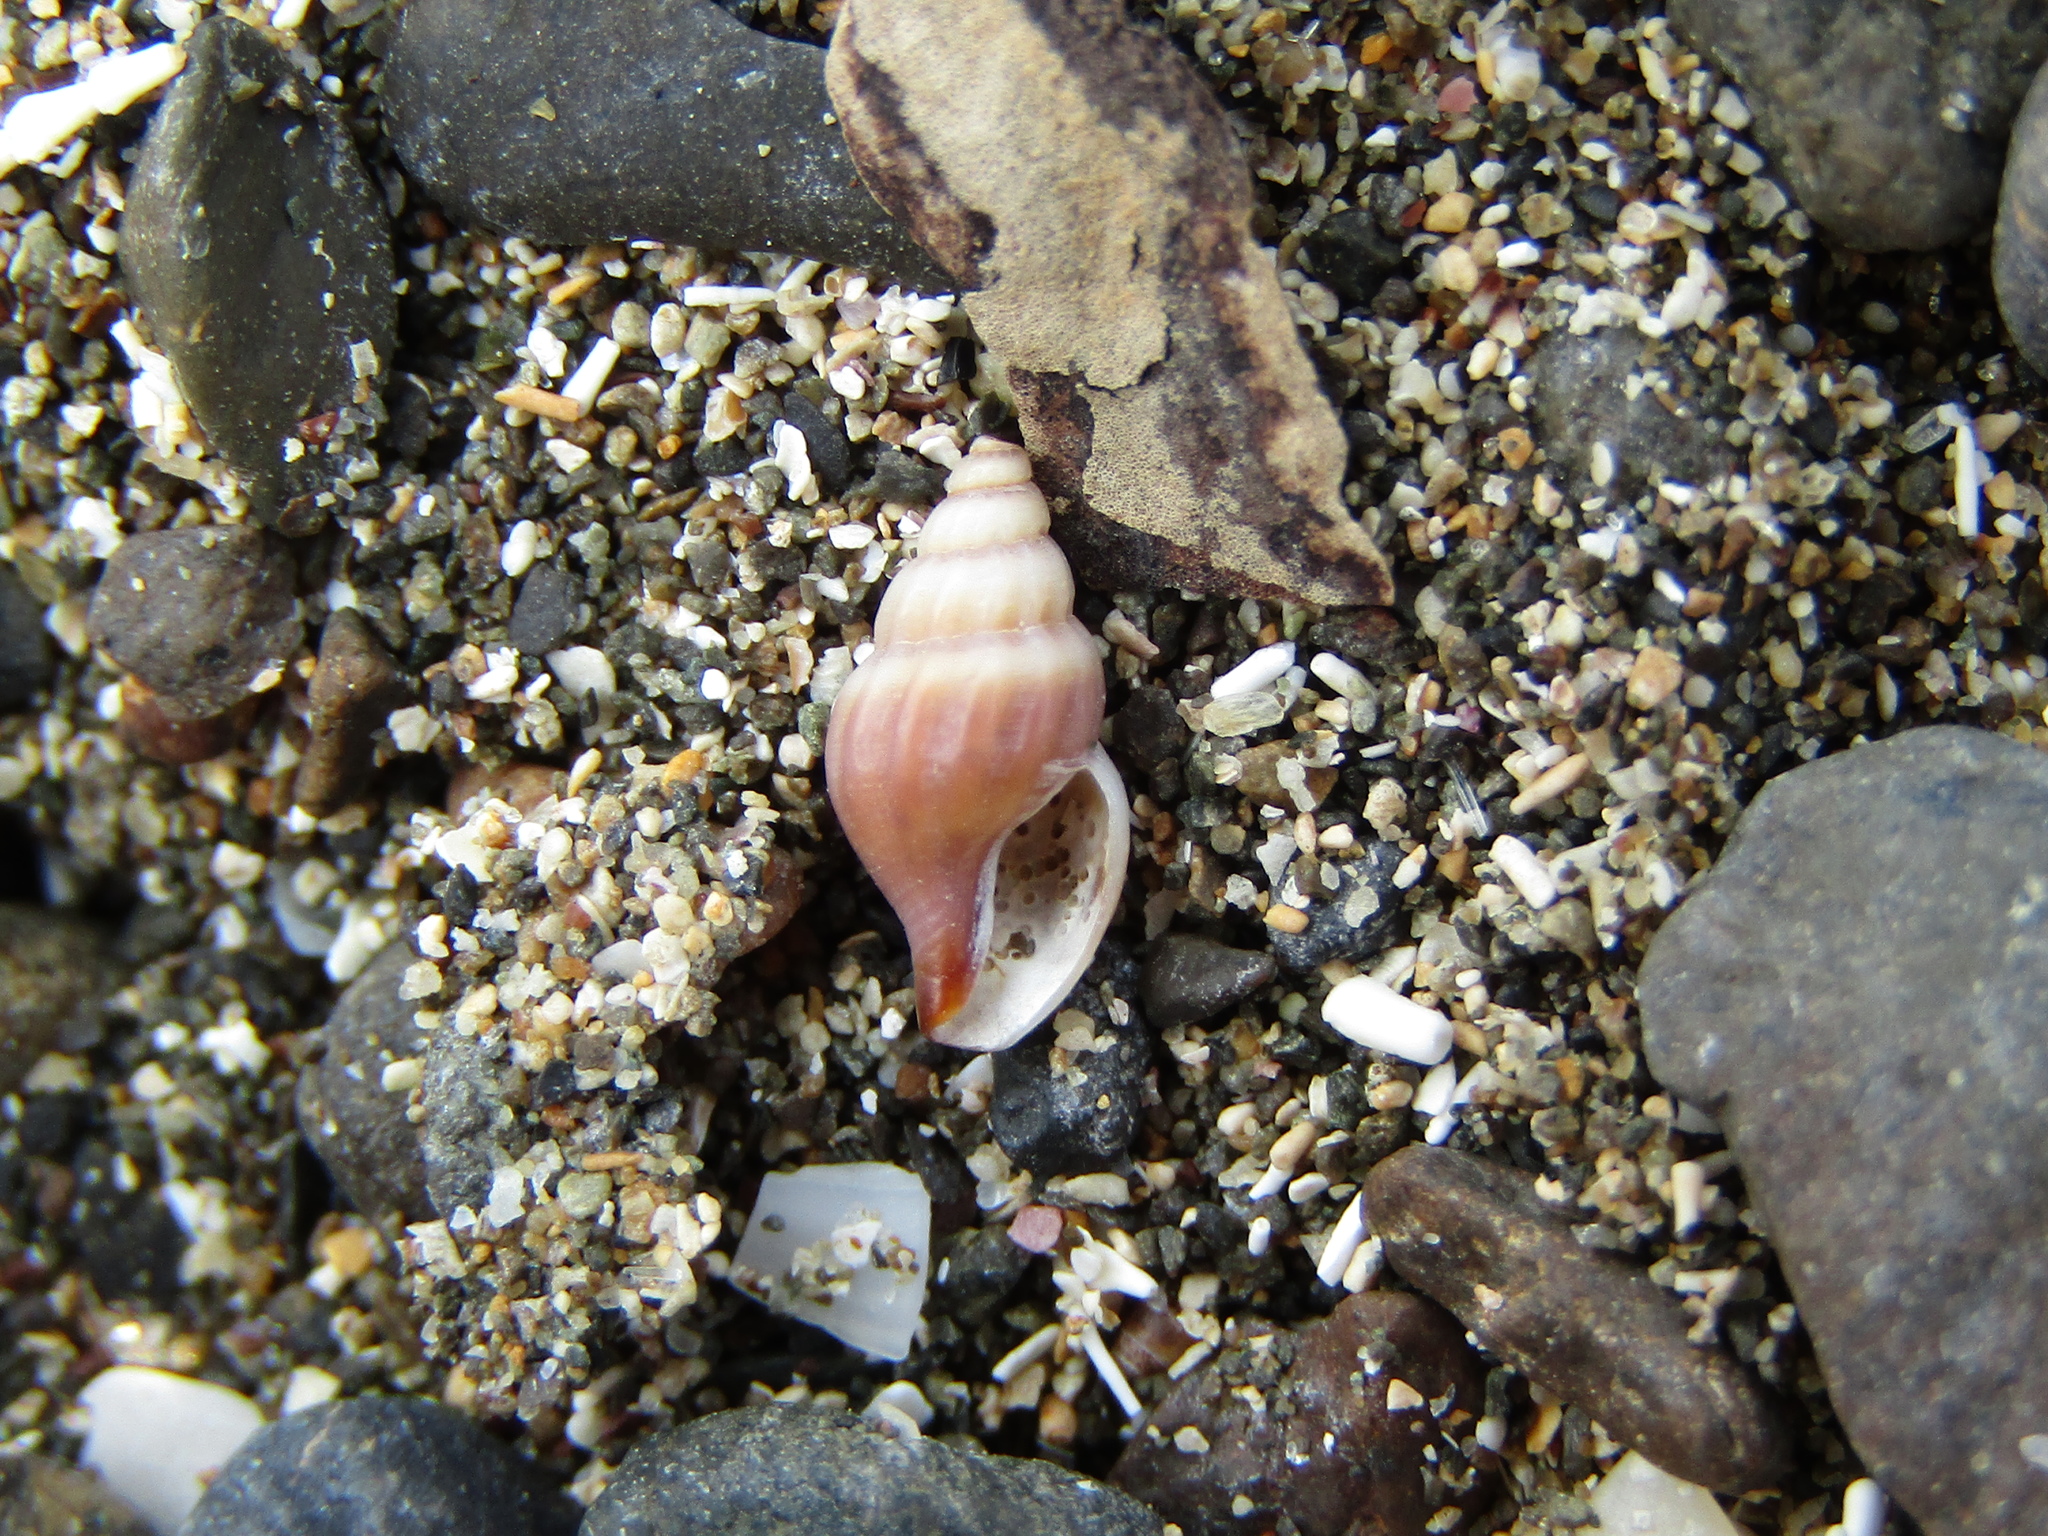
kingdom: Animalia
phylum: Mollusca
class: Gastropoda
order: Neogastropoda
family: Mangeliidae
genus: Neoguraleus
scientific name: Neoguraleus lyallensis
